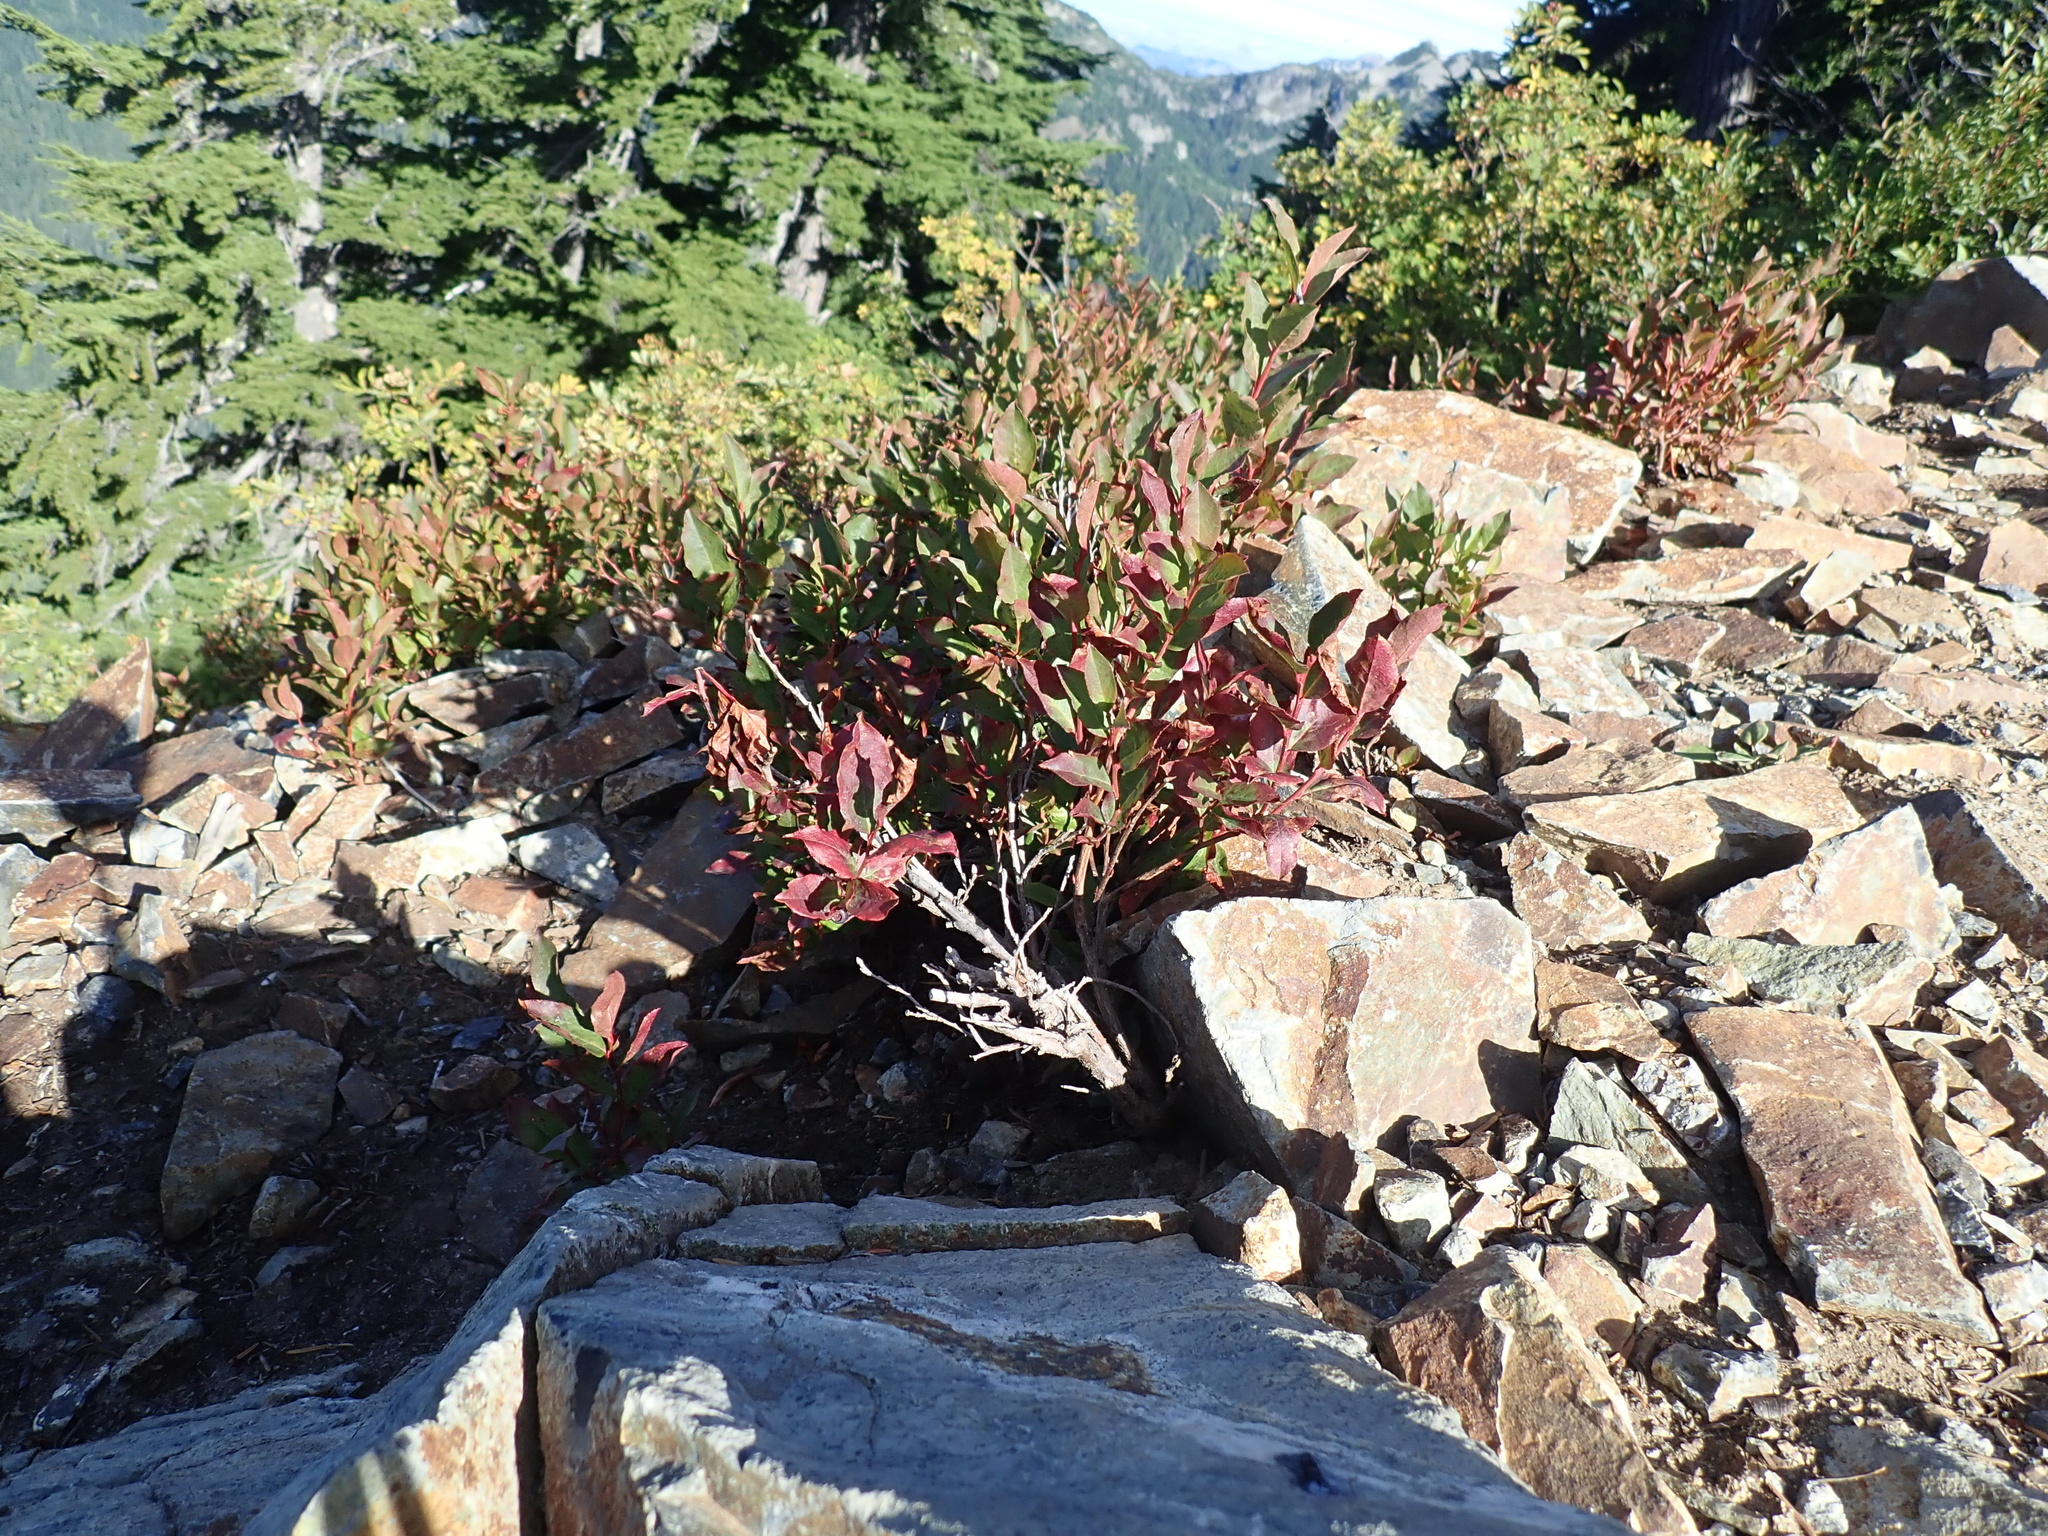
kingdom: Plantae
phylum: Tracheophyta
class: Magnoliopsida
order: Caryophyllales
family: Polygonaceae
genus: Koenigia
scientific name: Koenigia davisiae
